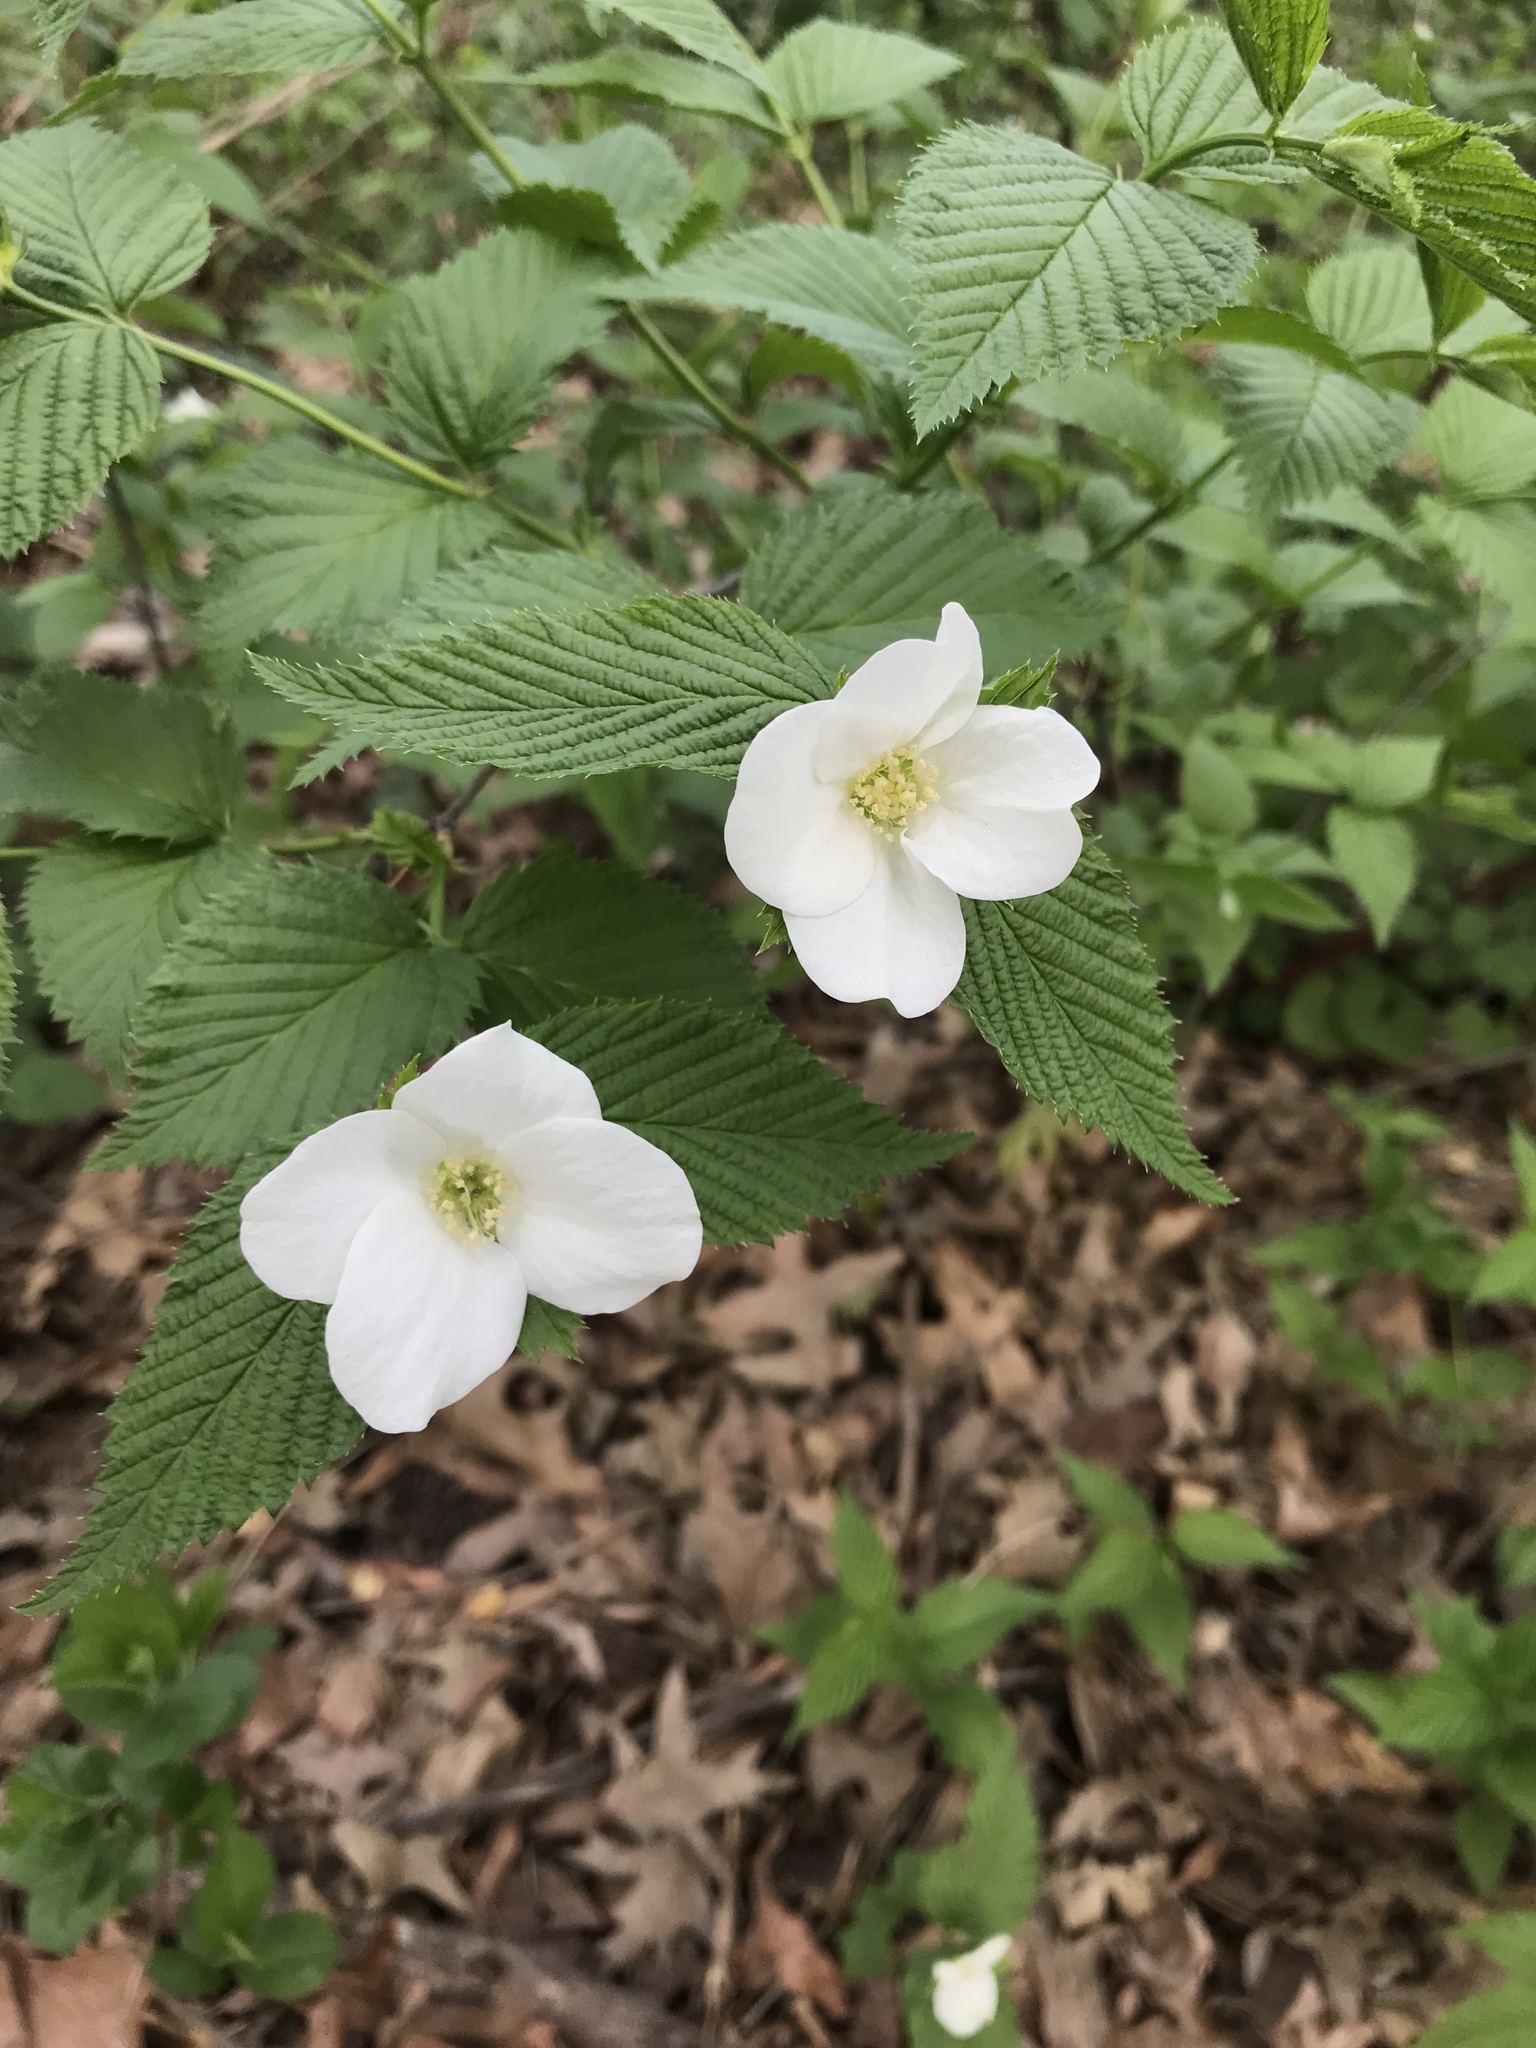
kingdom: Plantae
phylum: Tracheophyta
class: Magnoliopsida
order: Rosales
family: Rosaceae
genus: Rhodotypos
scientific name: Rhodotypos scandens
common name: Jetbead
